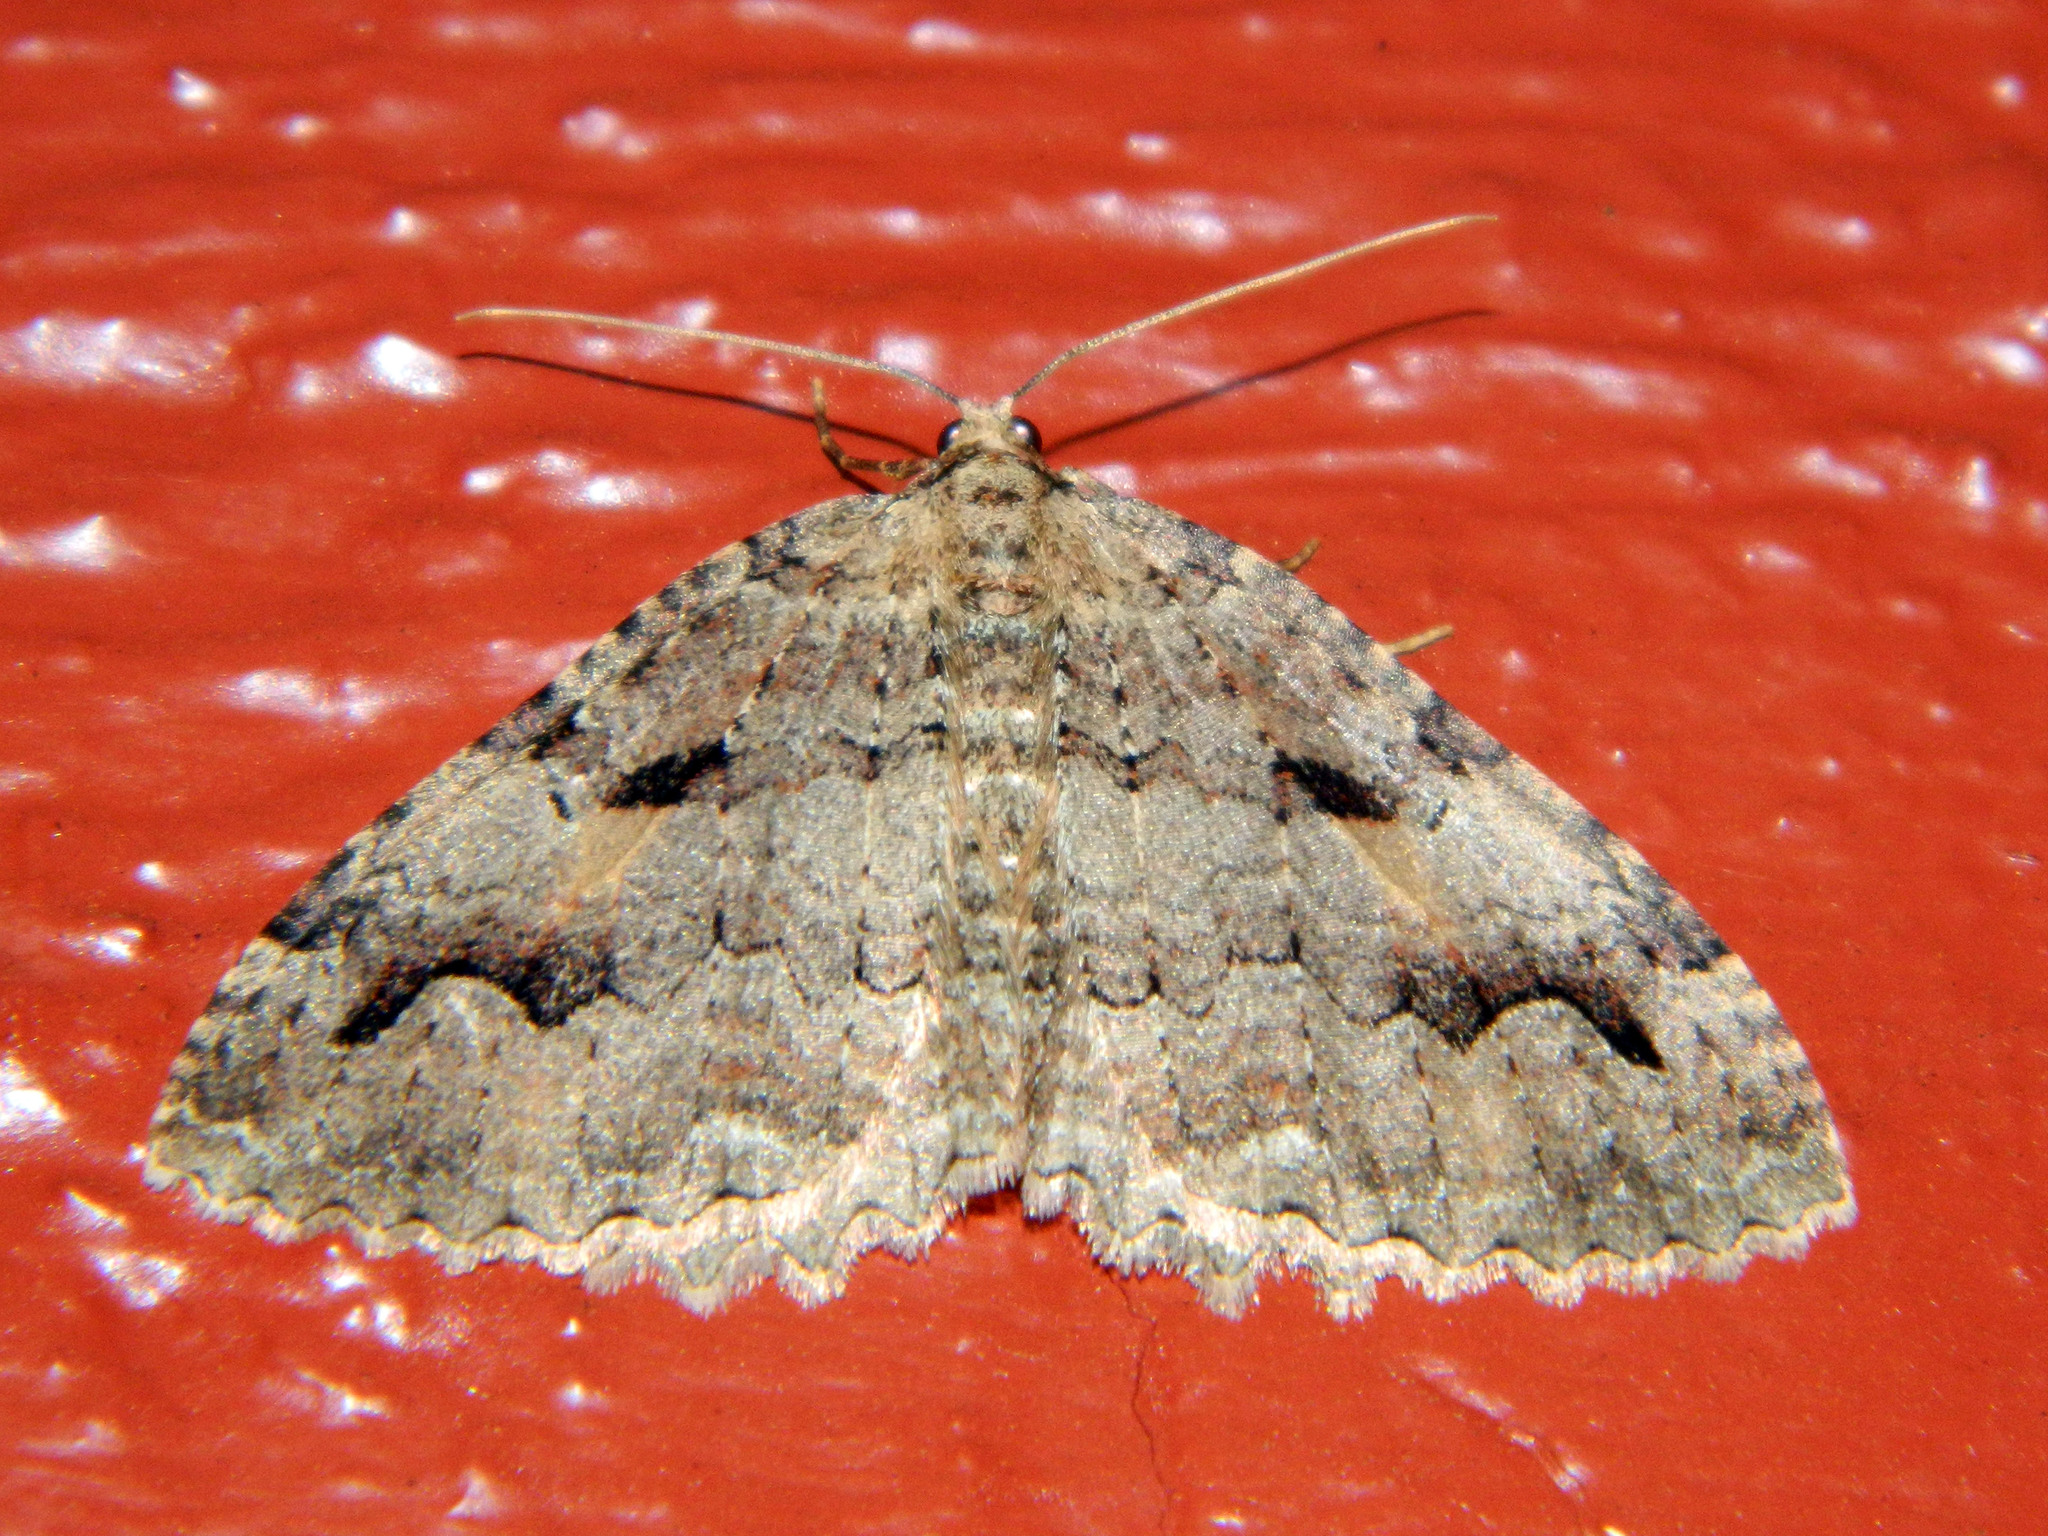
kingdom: Animalia
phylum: Arthropoda
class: Insecta
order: Lepidoptera
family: Geometridae
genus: Triphosa
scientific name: Triphosa haesitata
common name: Tissue moth
